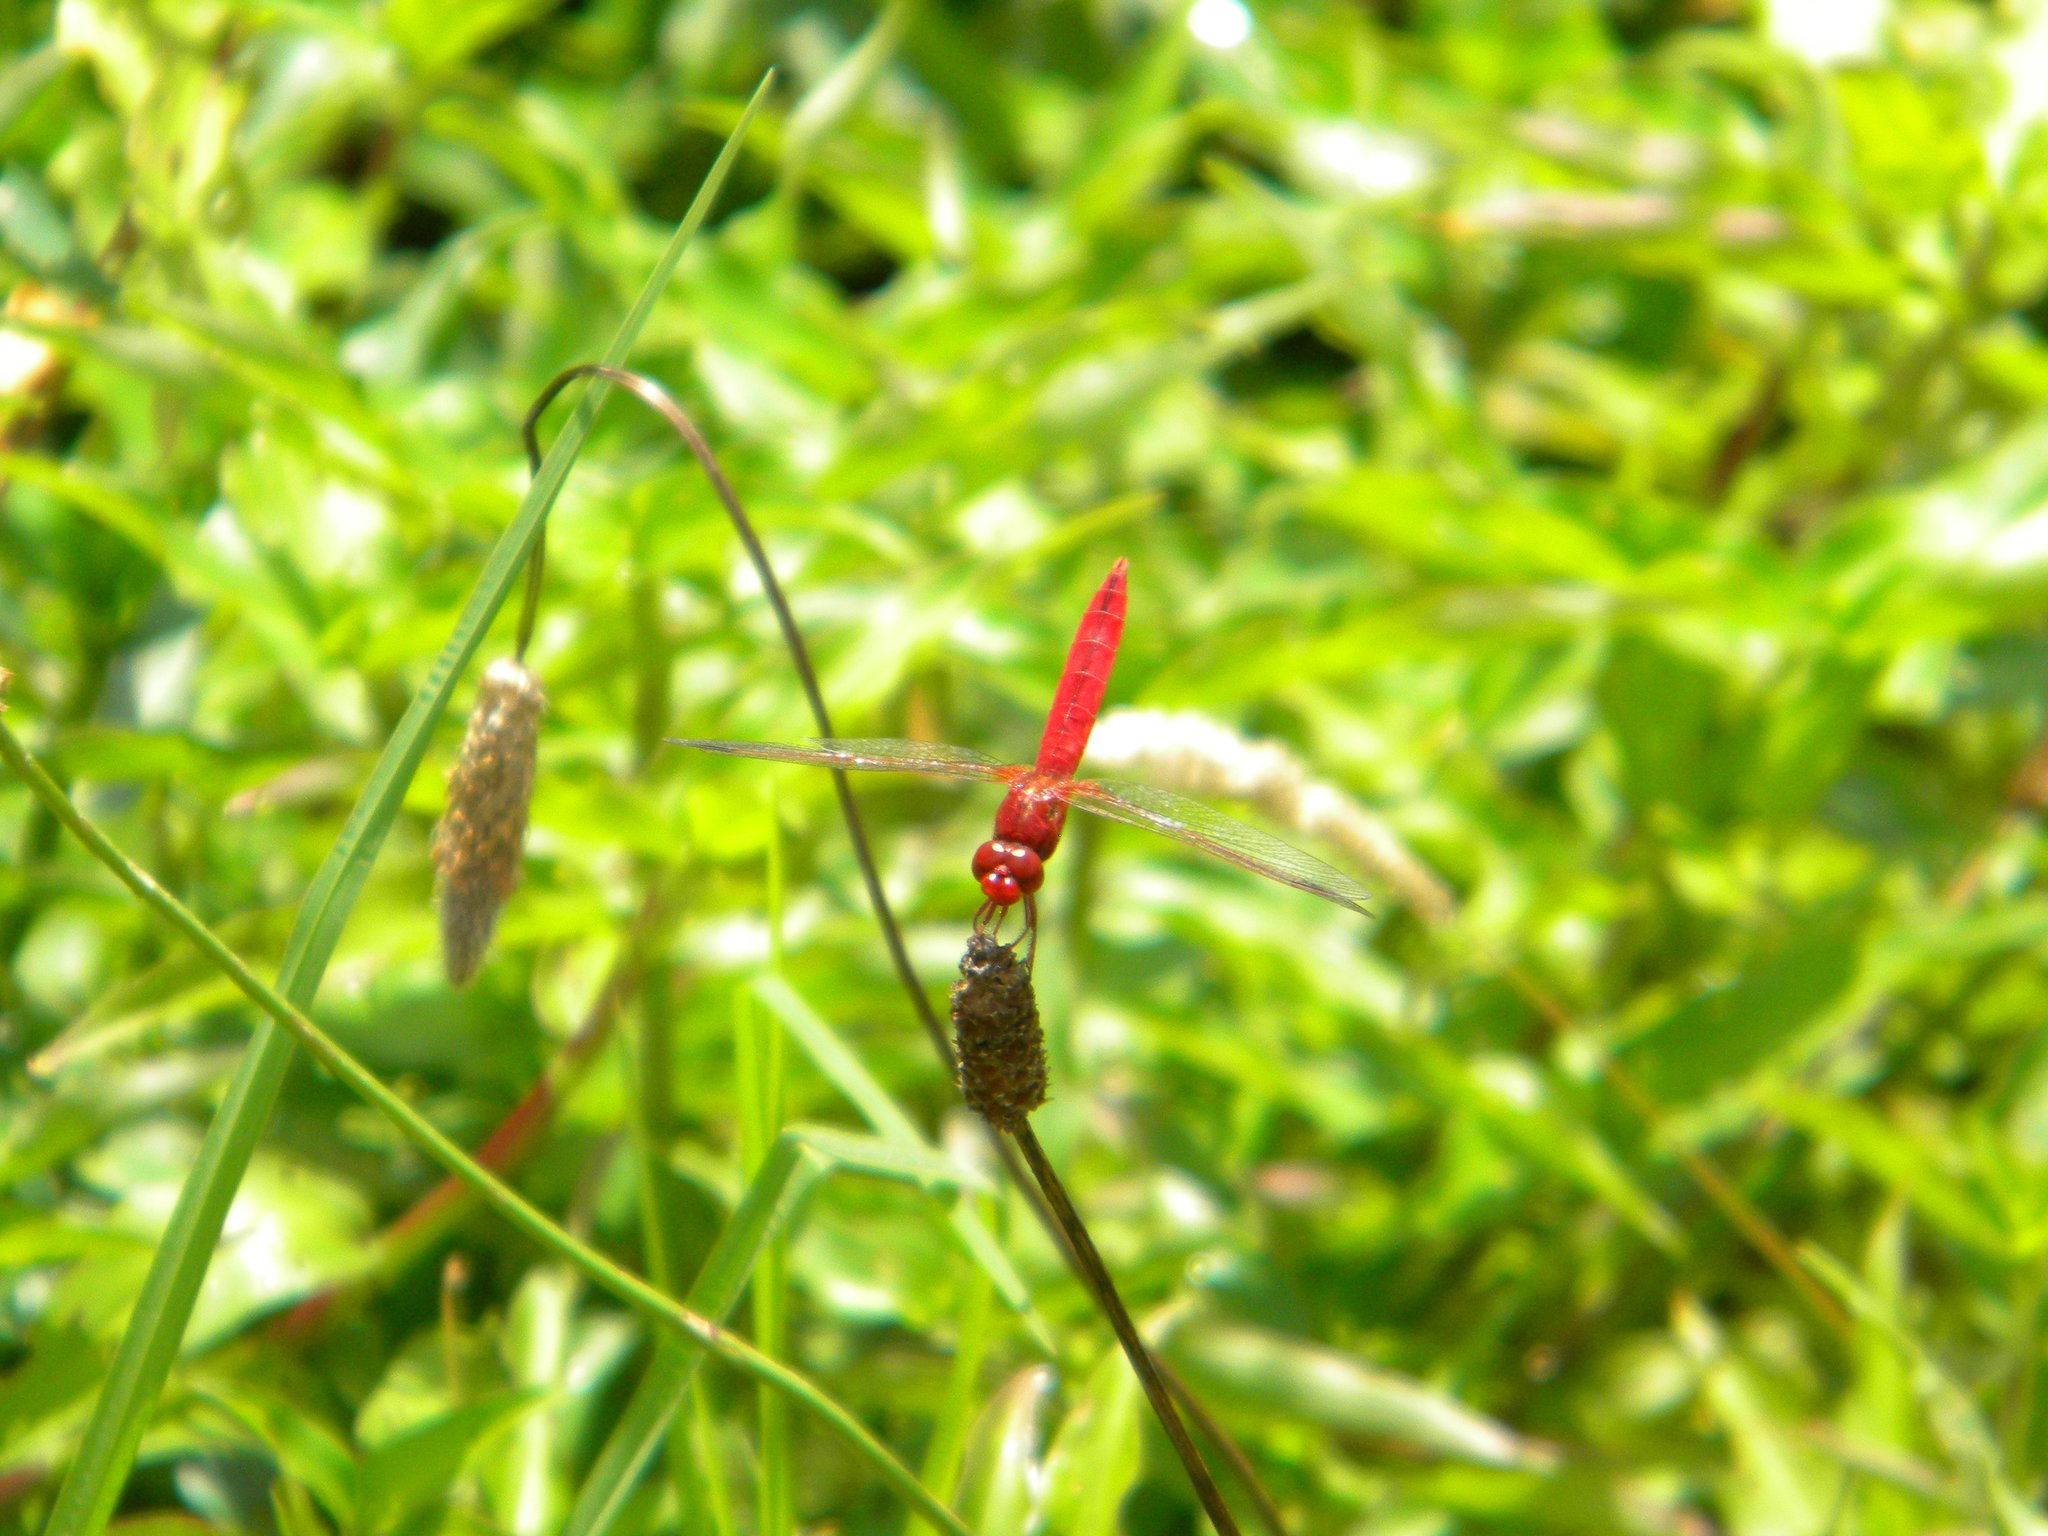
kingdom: Animalia
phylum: Arthropoda
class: Insecta
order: Odonata
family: Libellulidae
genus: Crocothemis
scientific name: Crocothemis erythraea
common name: Scarlet dragonfly
